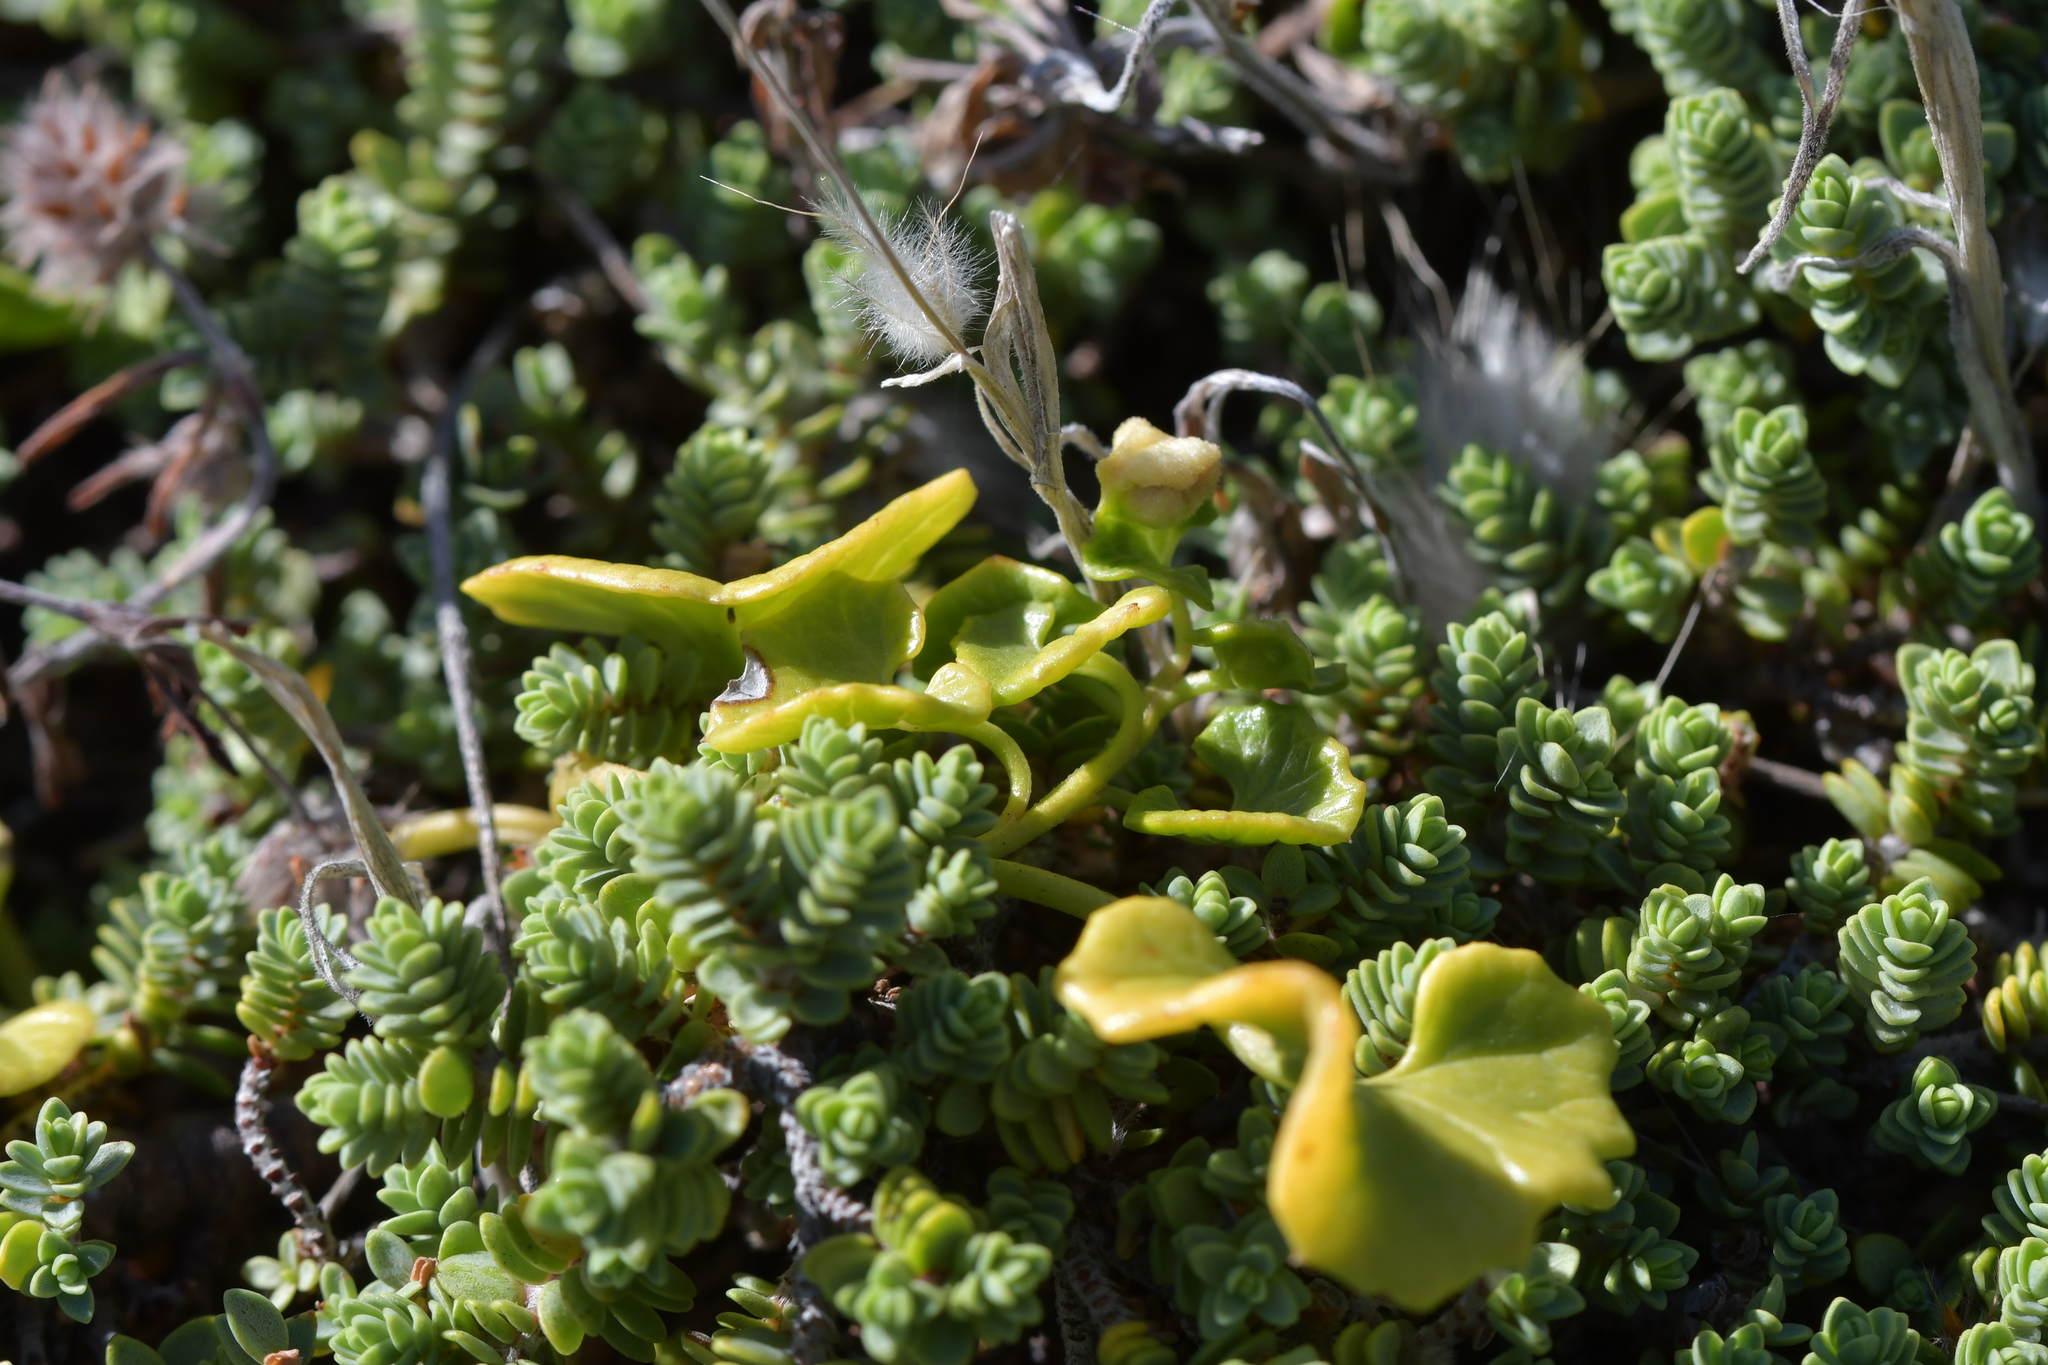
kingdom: Plantae
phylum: Tracheophyta
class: Magnoliopsida
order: Solanales
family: Convolvulaceae
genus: Calystegia
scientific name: Calystegia soldanella
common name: Sea bindweed
